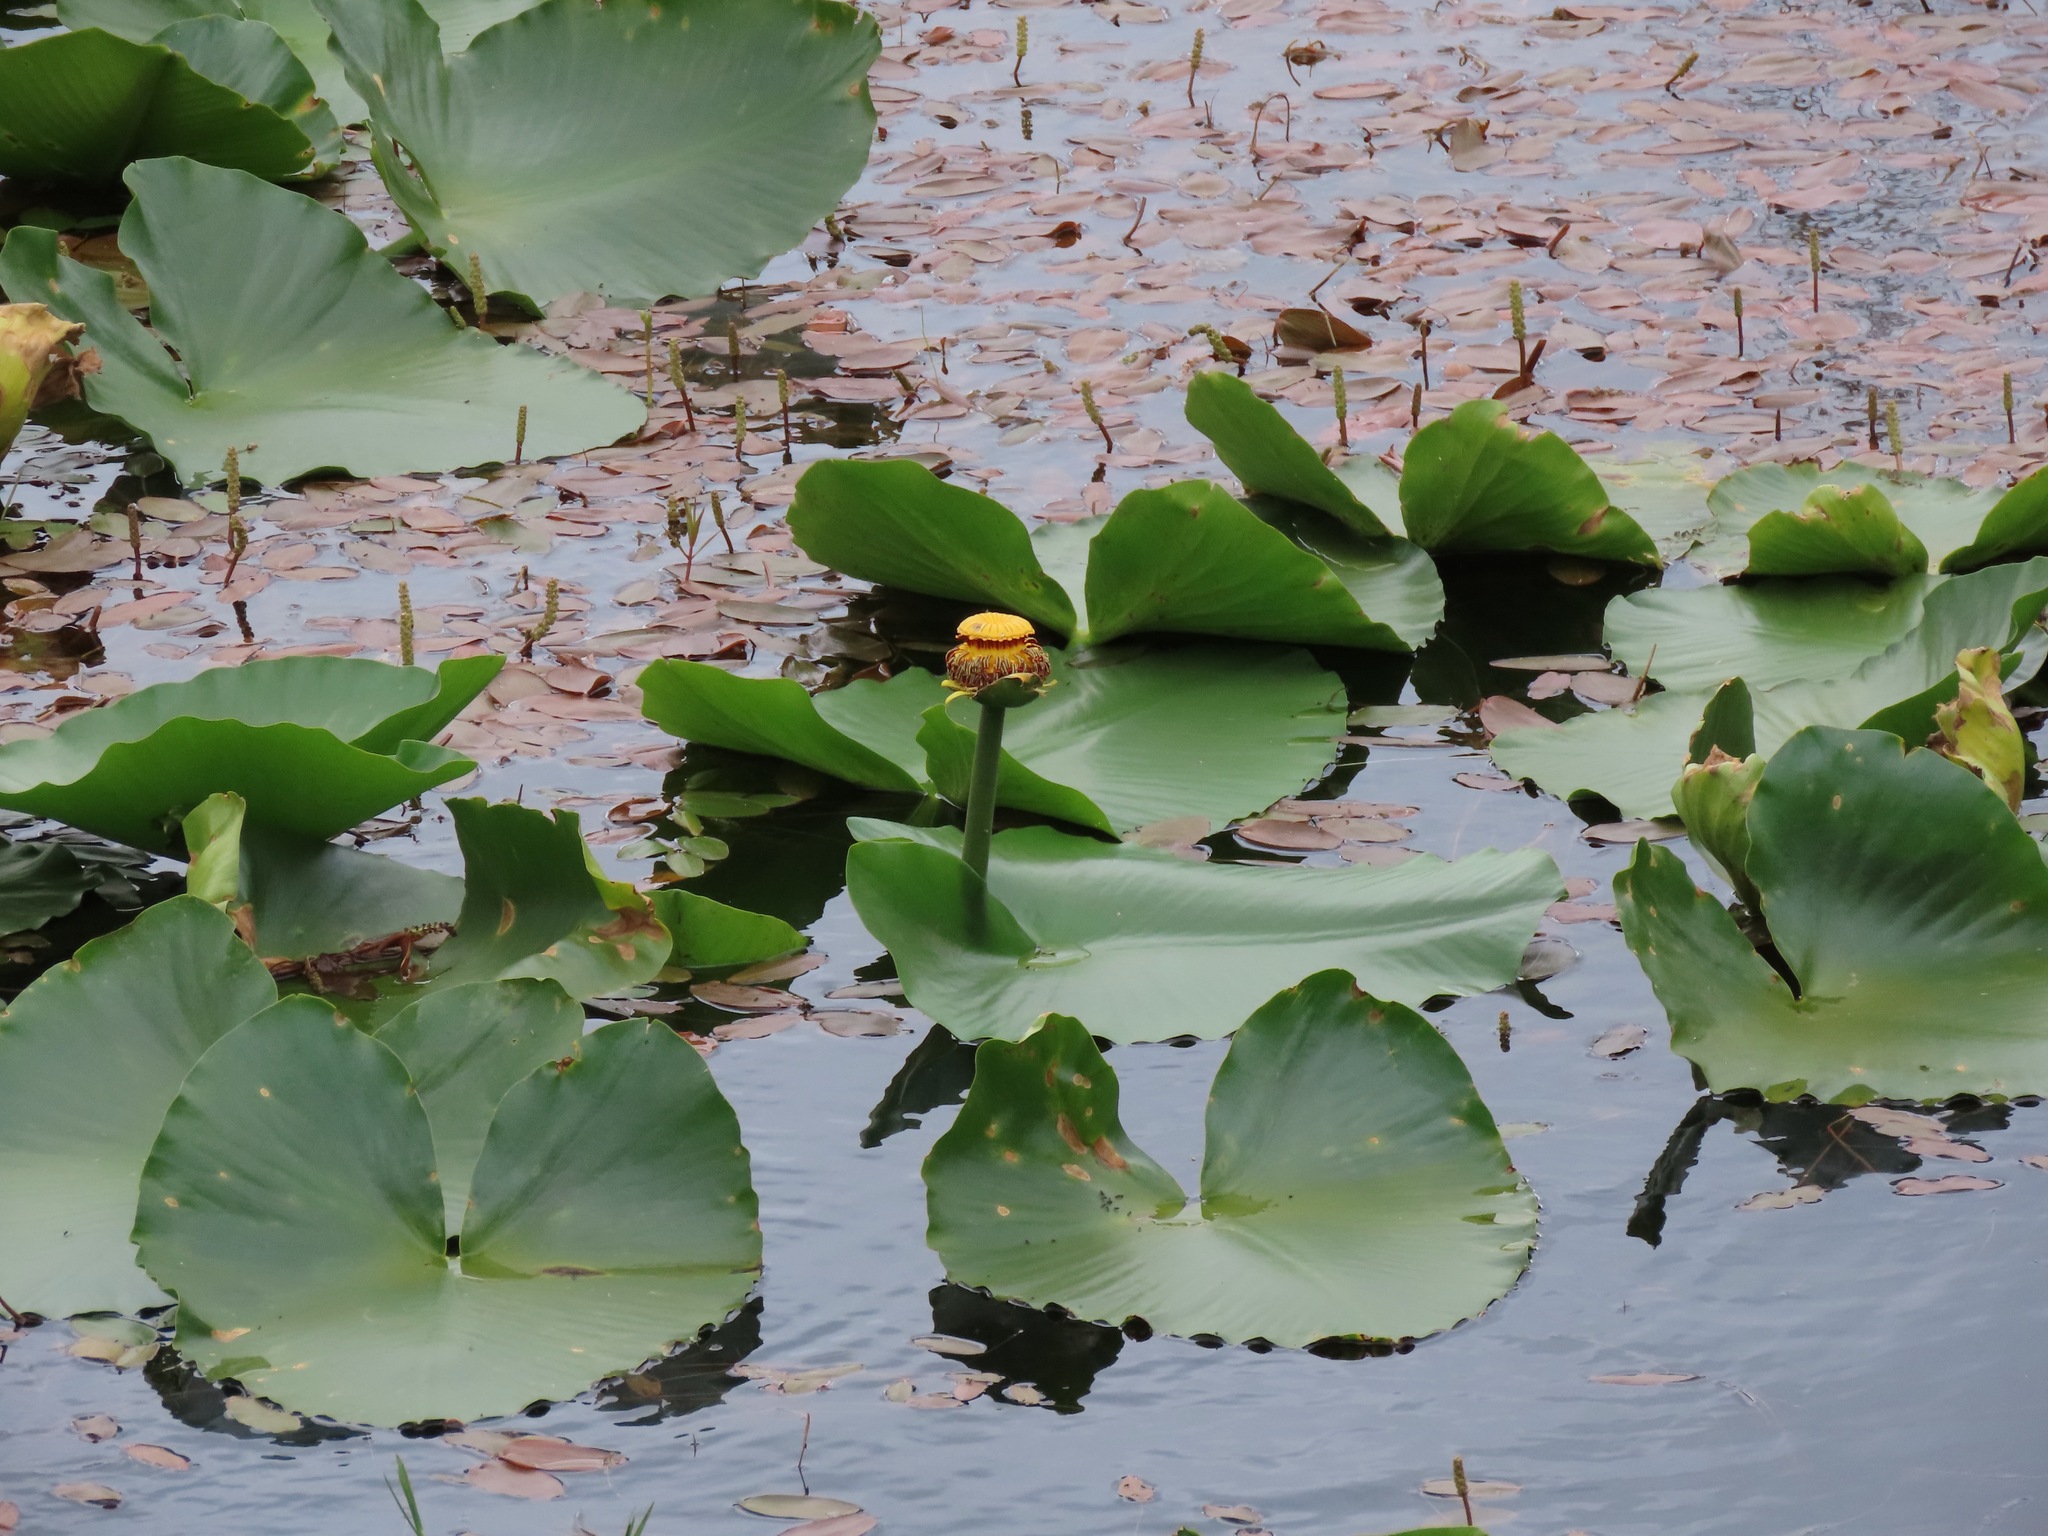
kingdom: Plantae
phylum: Tracheophyta
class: Magnoliopsida
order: Nymphaeales
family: Nymphaeaceae
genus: Nuphar
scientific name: Nuphar polysepala
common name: Rocky mountain cow-lily
